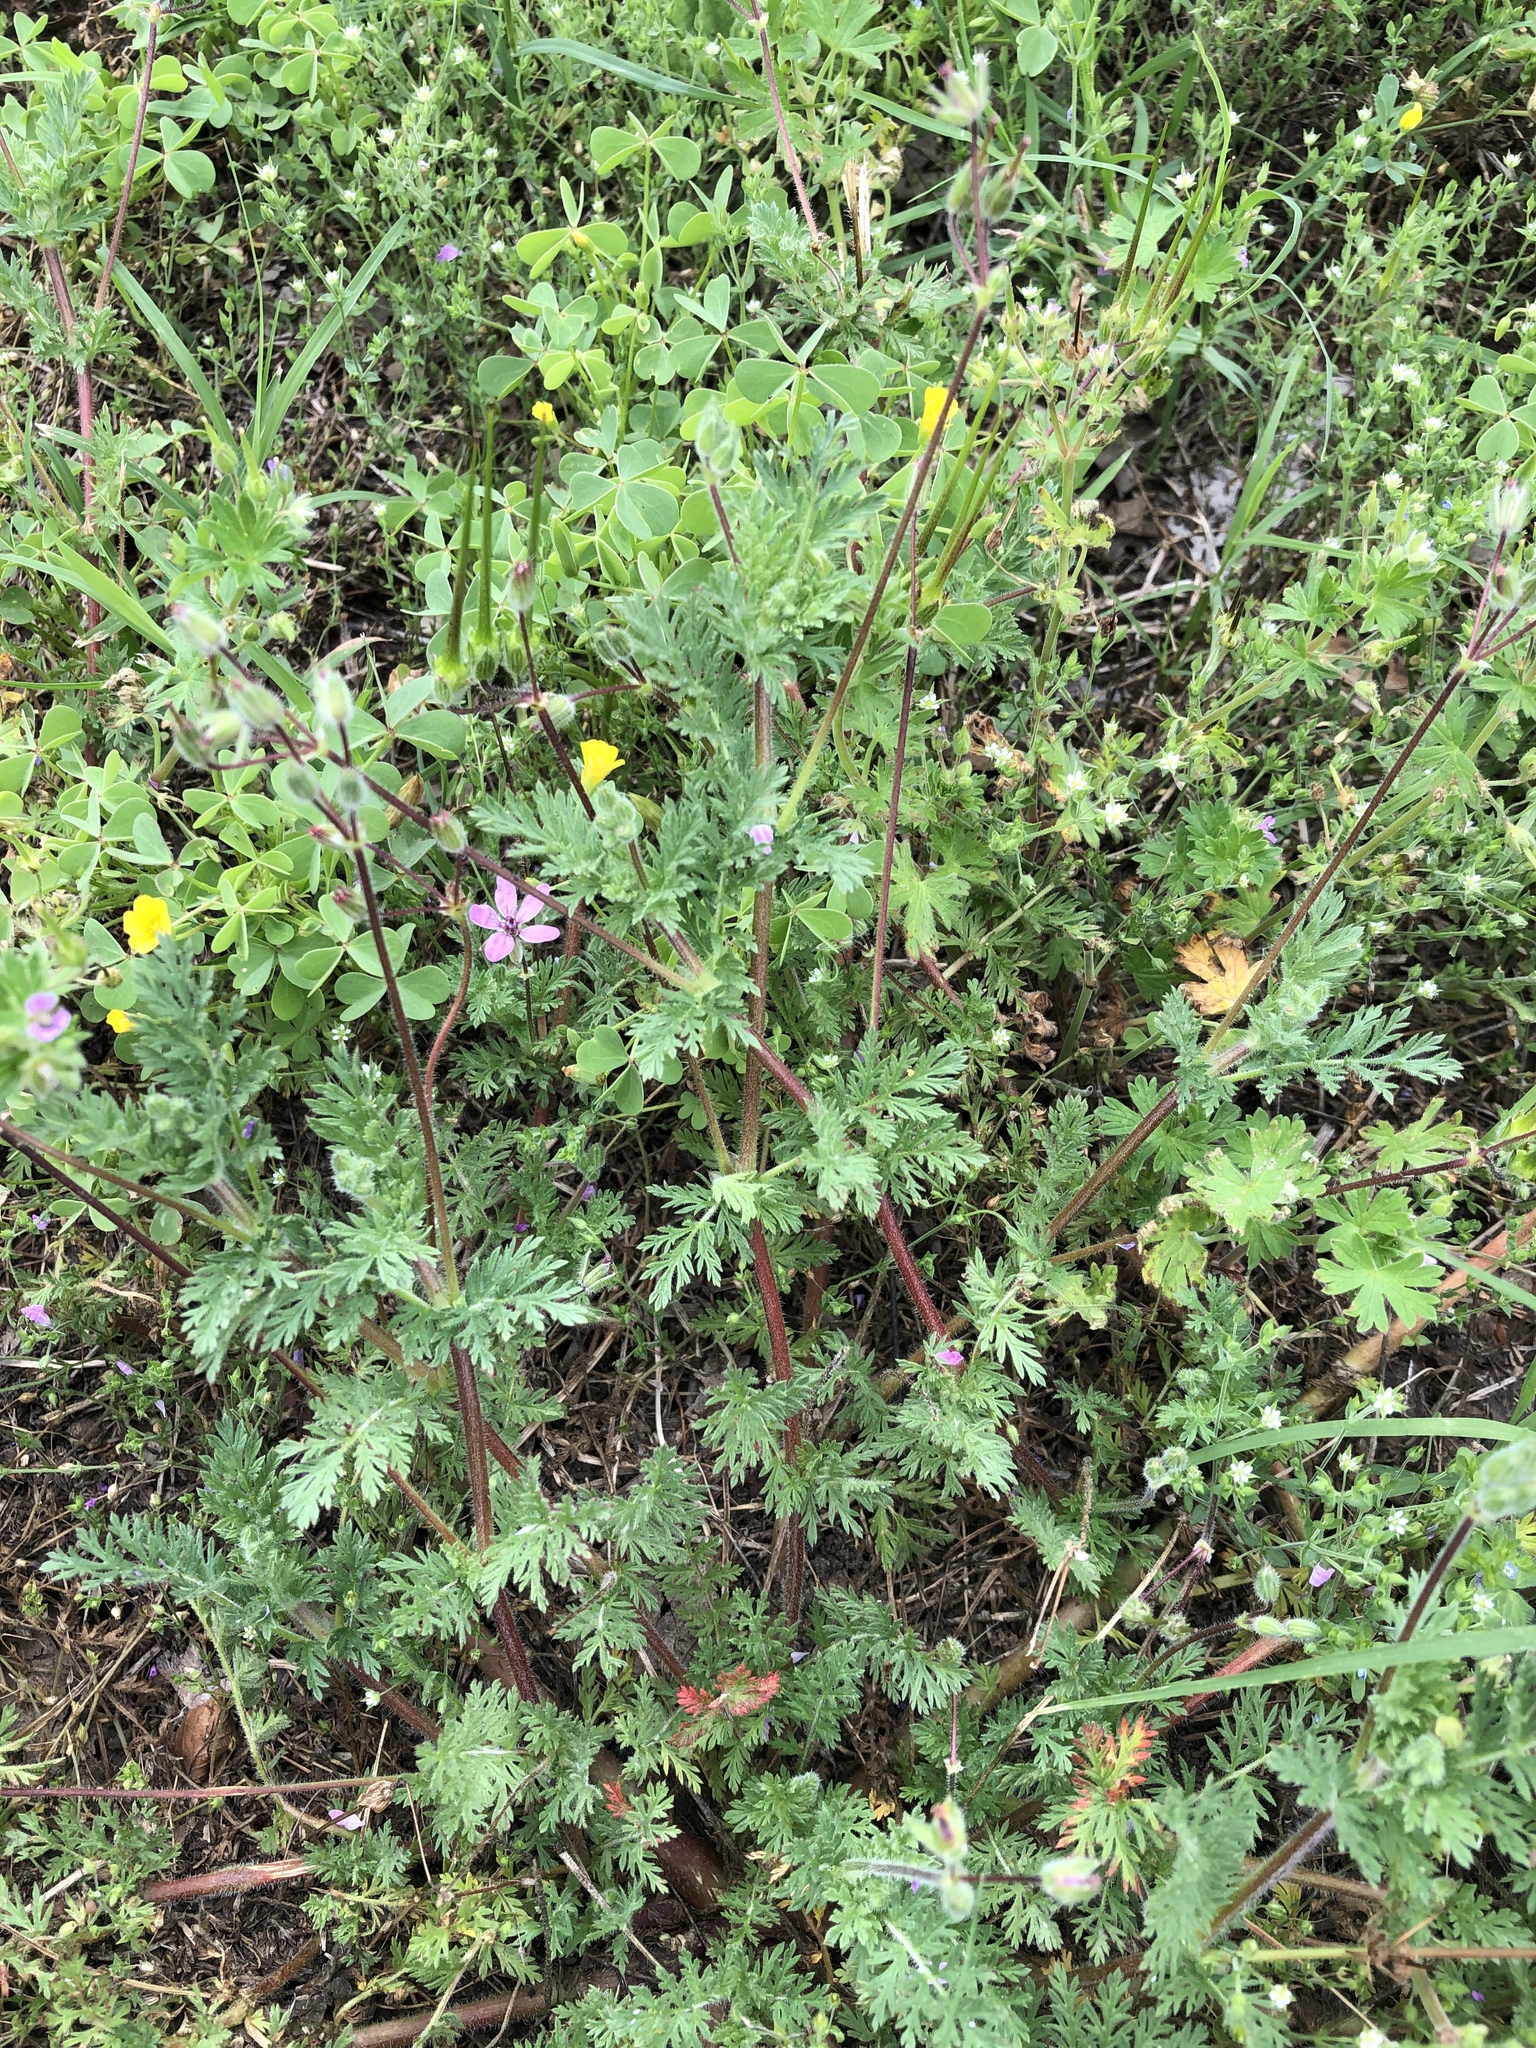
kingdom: Plantae
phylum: Tracheophyta
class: Magnoliopsida
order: Geraniales
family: Geraniaceae
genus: Erodium
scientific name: Erodium cicutarium
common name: Common stork's-bill
